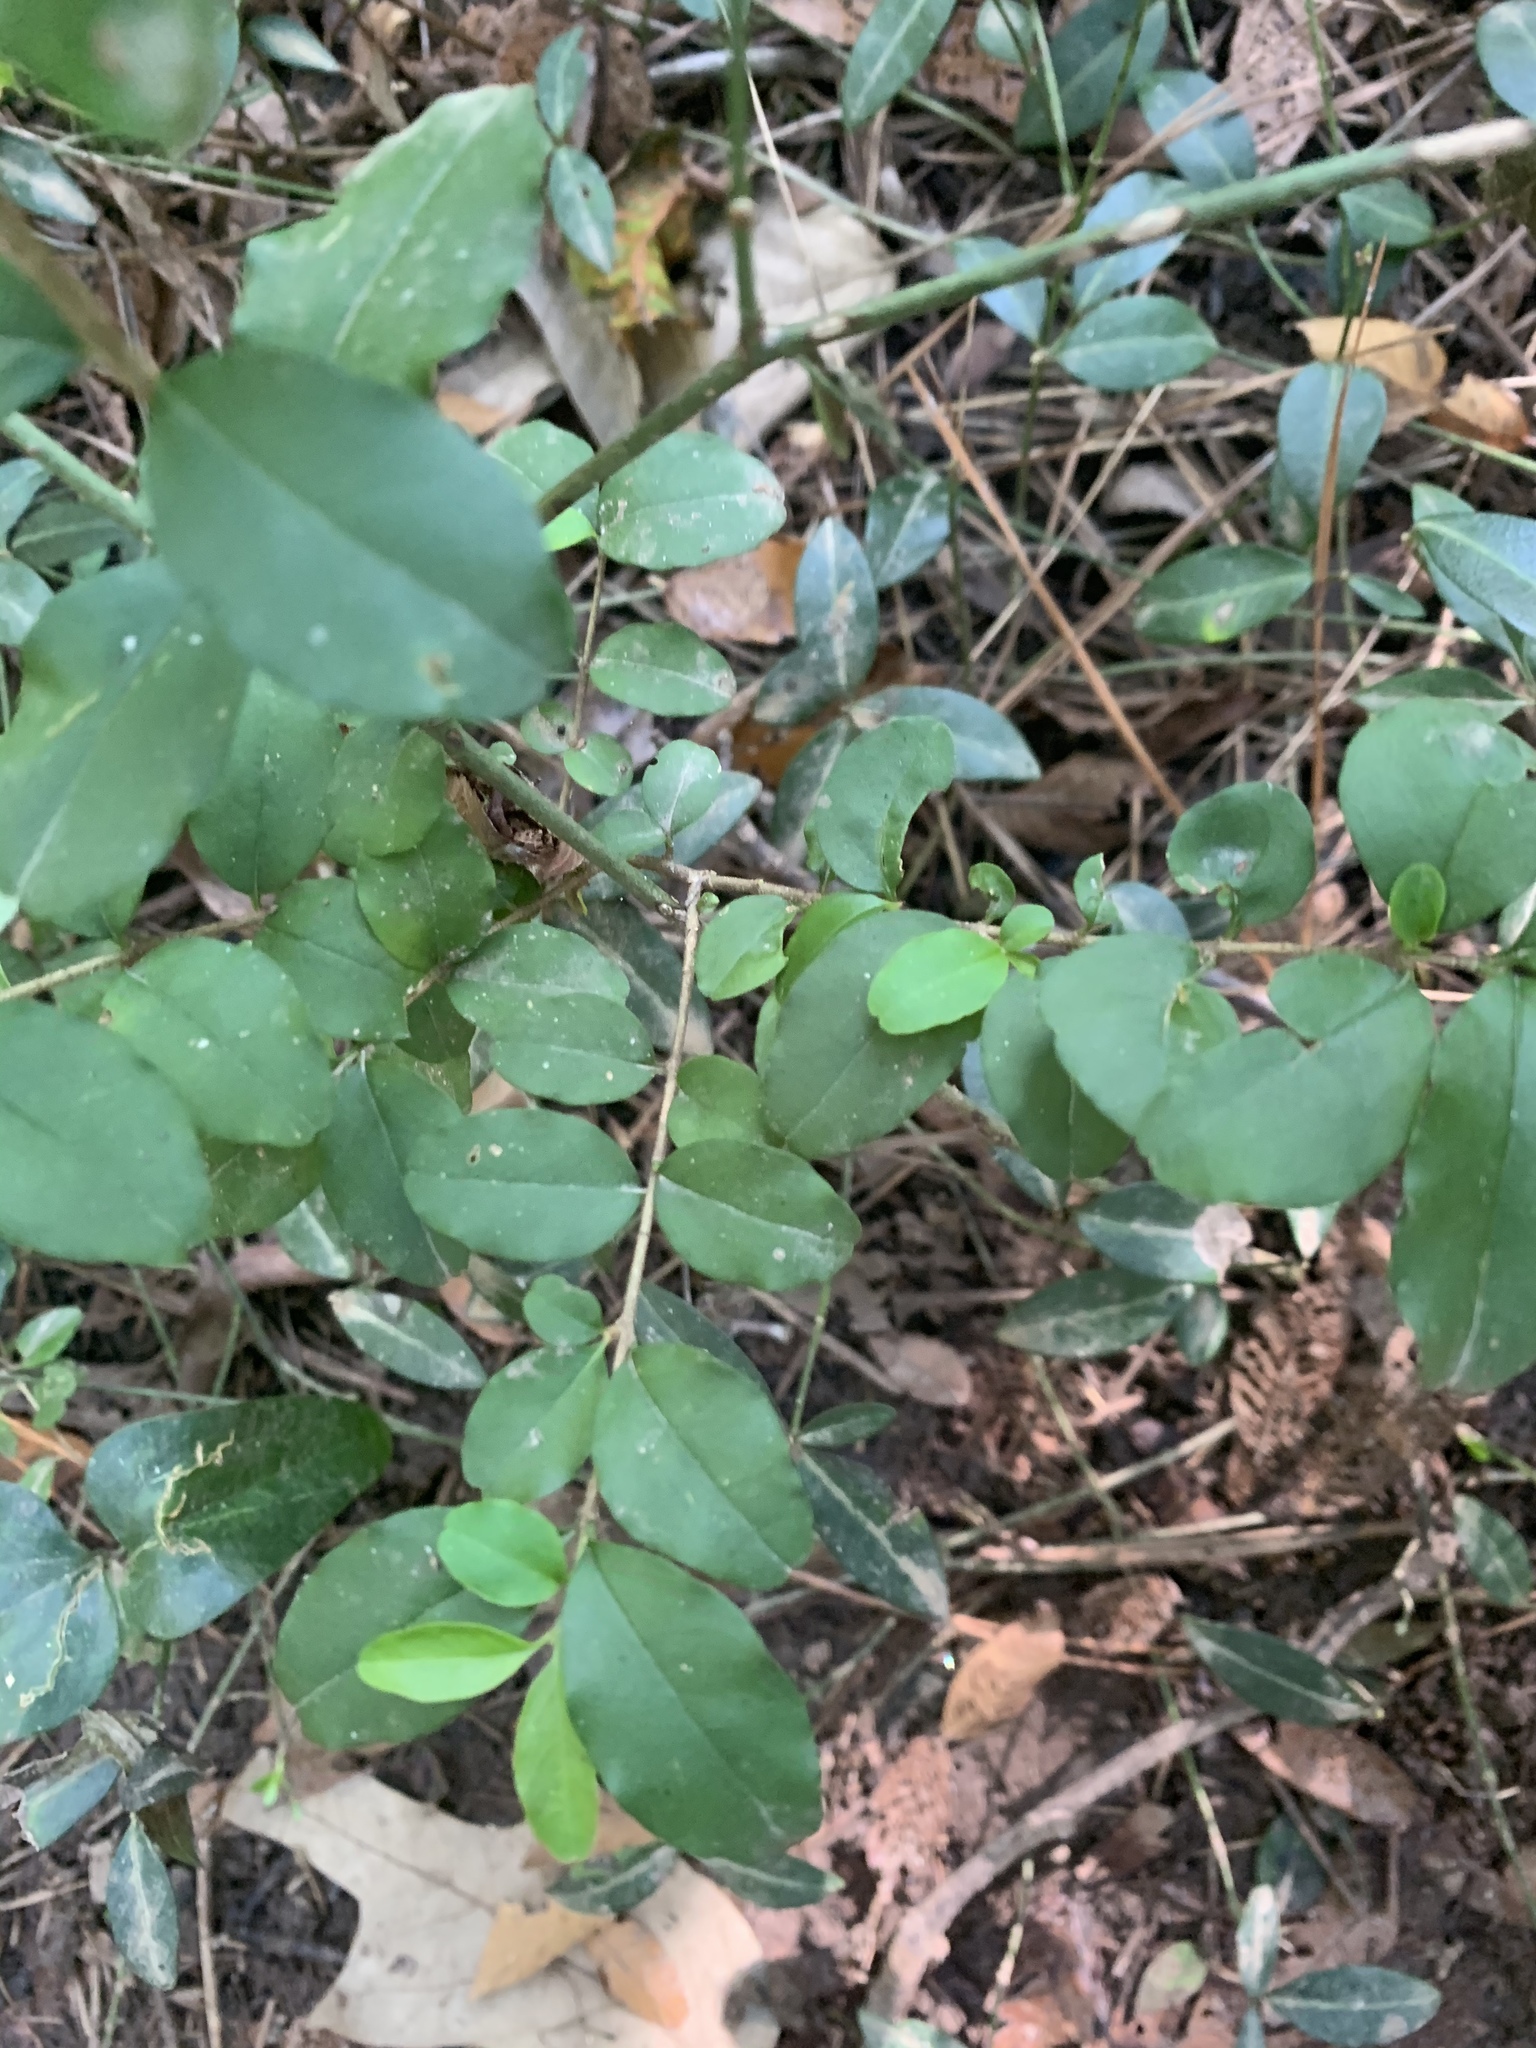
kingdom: Plantae
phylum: Tracheophyta
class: Magnoliopsida
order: Lamiales
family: Oleaceae
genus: Ligustrum
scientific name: Ligustrum sinense
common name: Chinese privet
